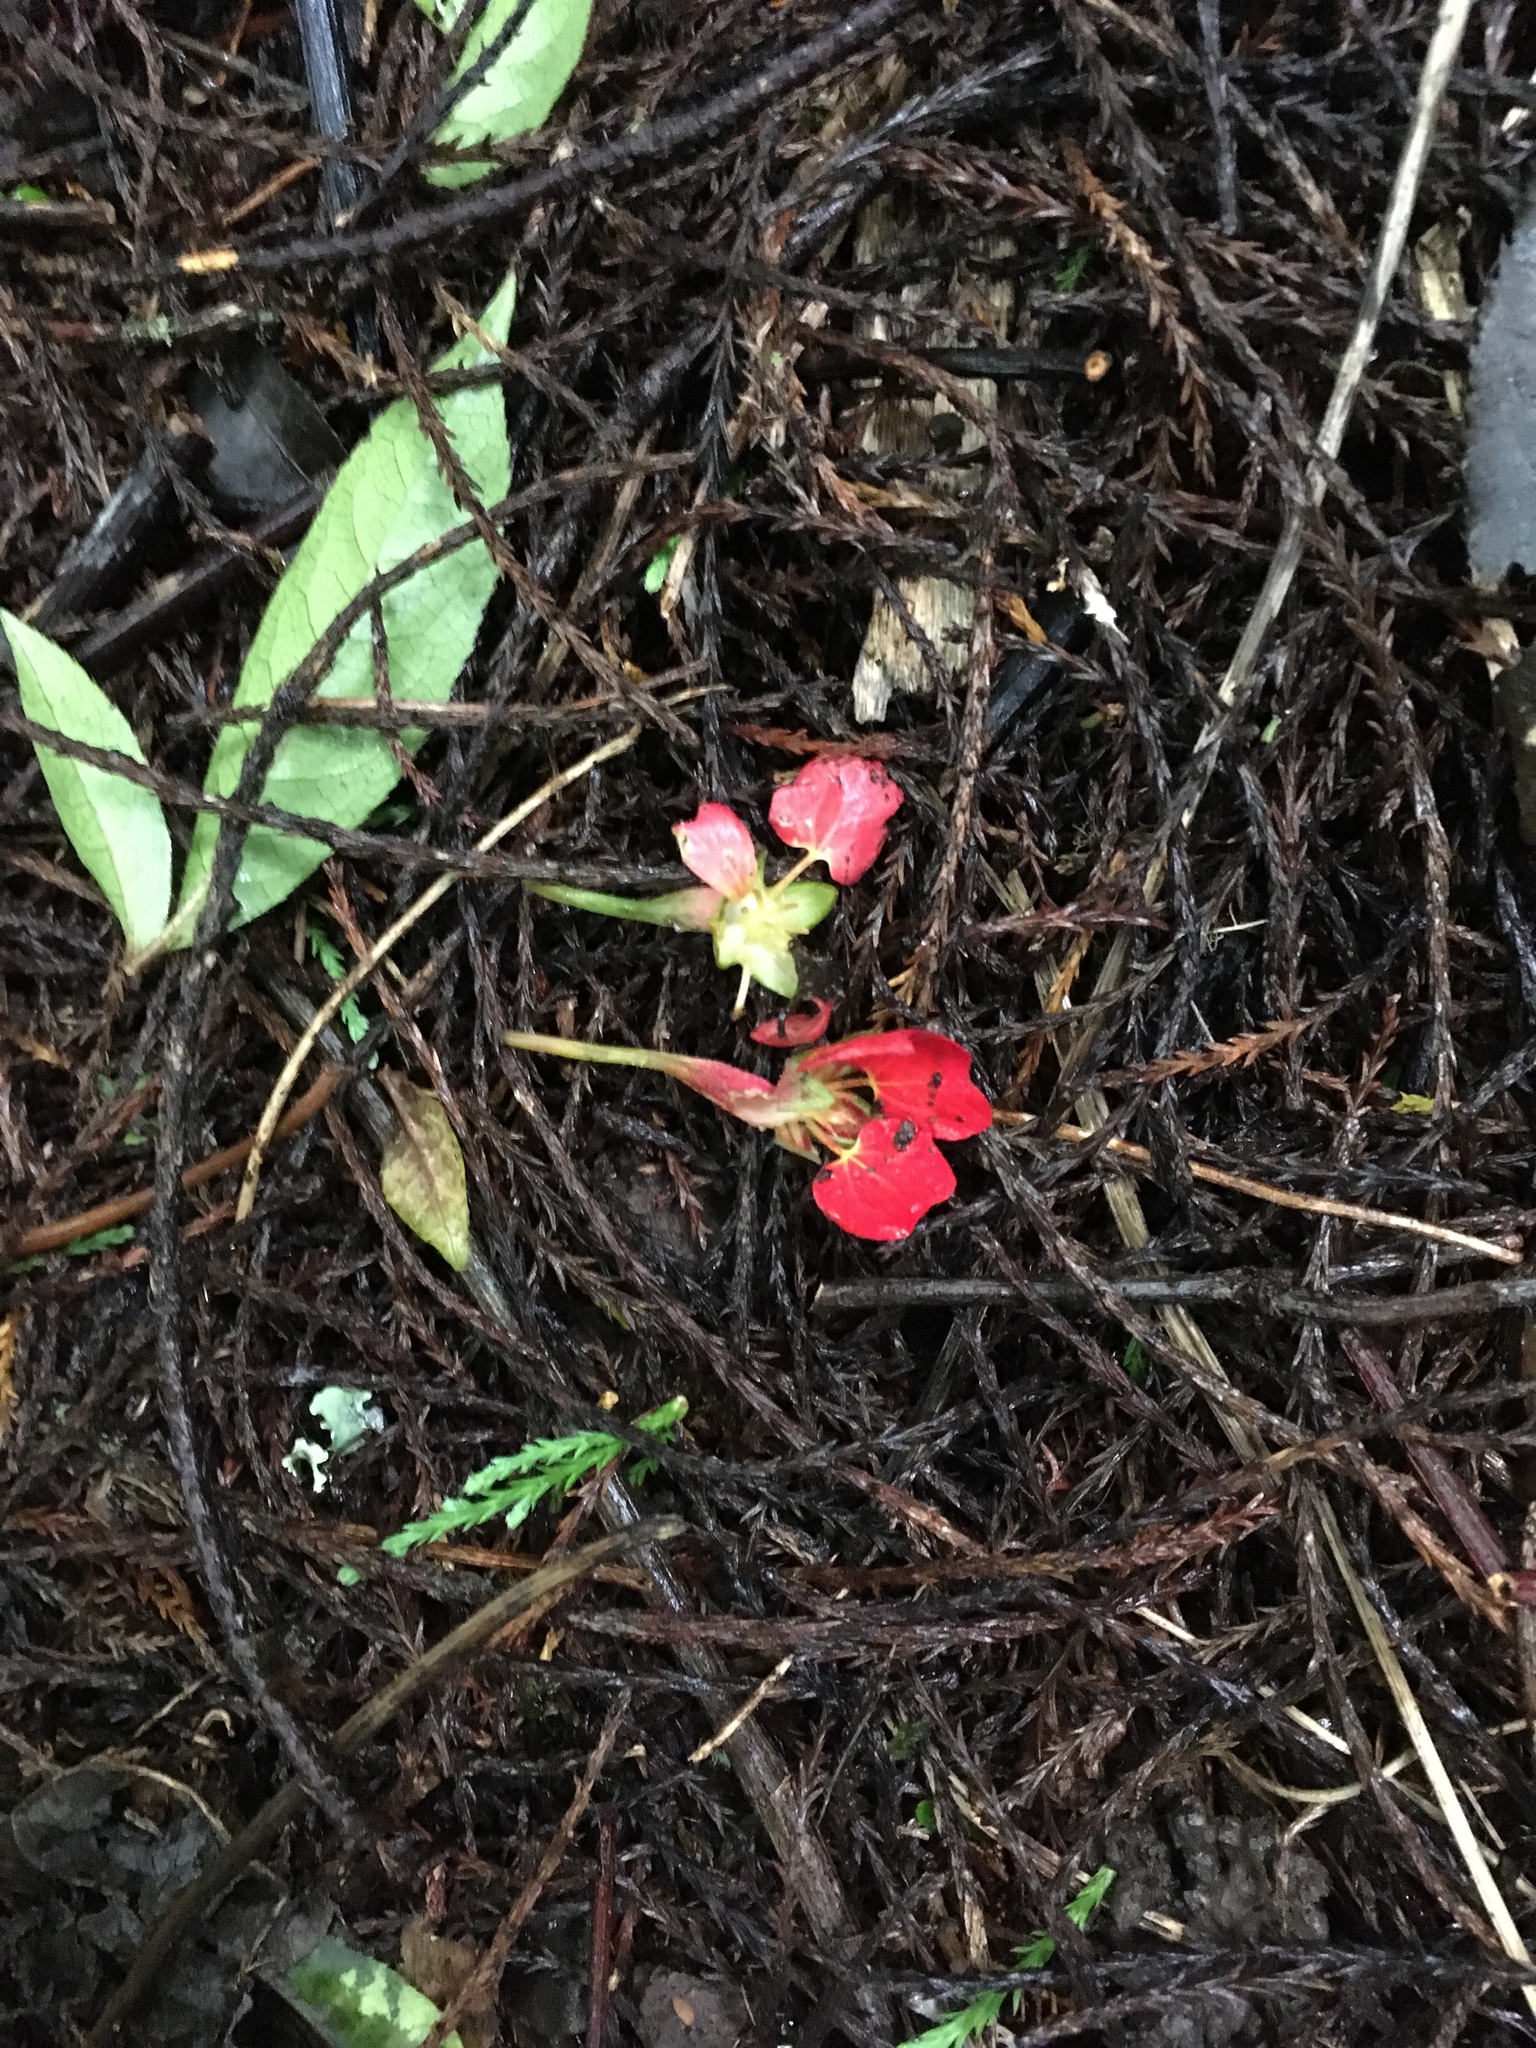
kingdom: Plantae
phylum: Tracheophyta
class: Magnoliopsida
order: Brassicales
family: Tropaeolaceae
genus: Tropaeolum
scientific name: Tropaeolum speciosum
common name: Flame nasturtium
